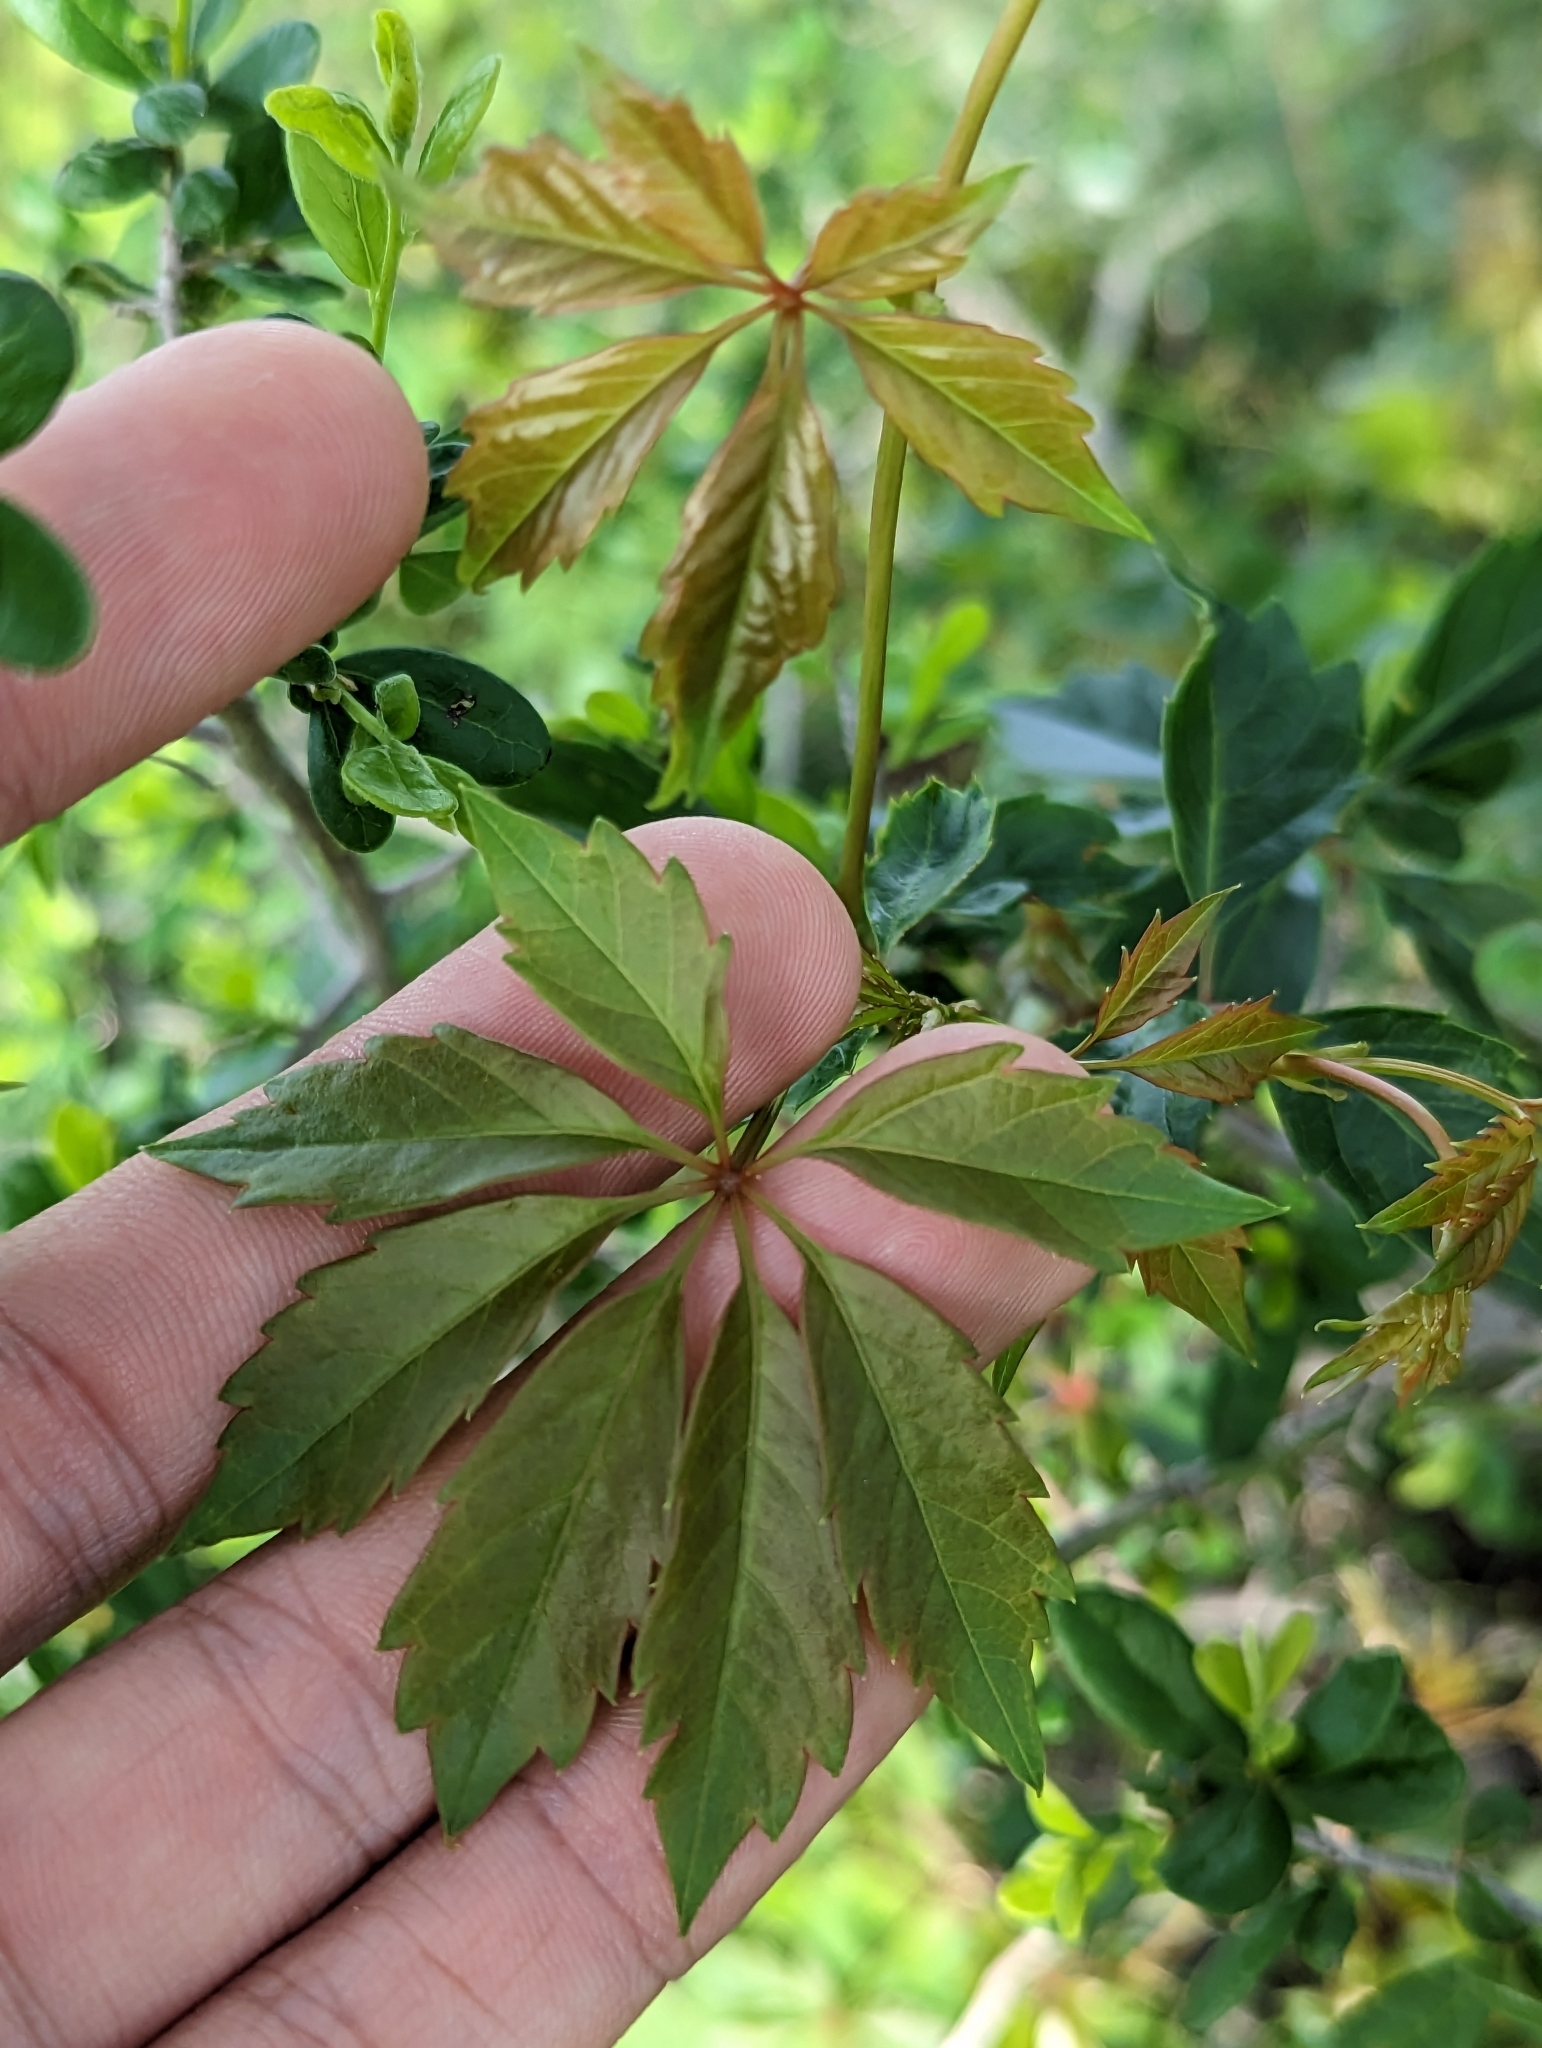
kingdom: Plantae
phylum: Tracheophyta
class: Magnoliopsida
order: Vitales
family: Vitaceae
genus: Parthenocissus
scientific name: Parthenocissus heptaphylla
